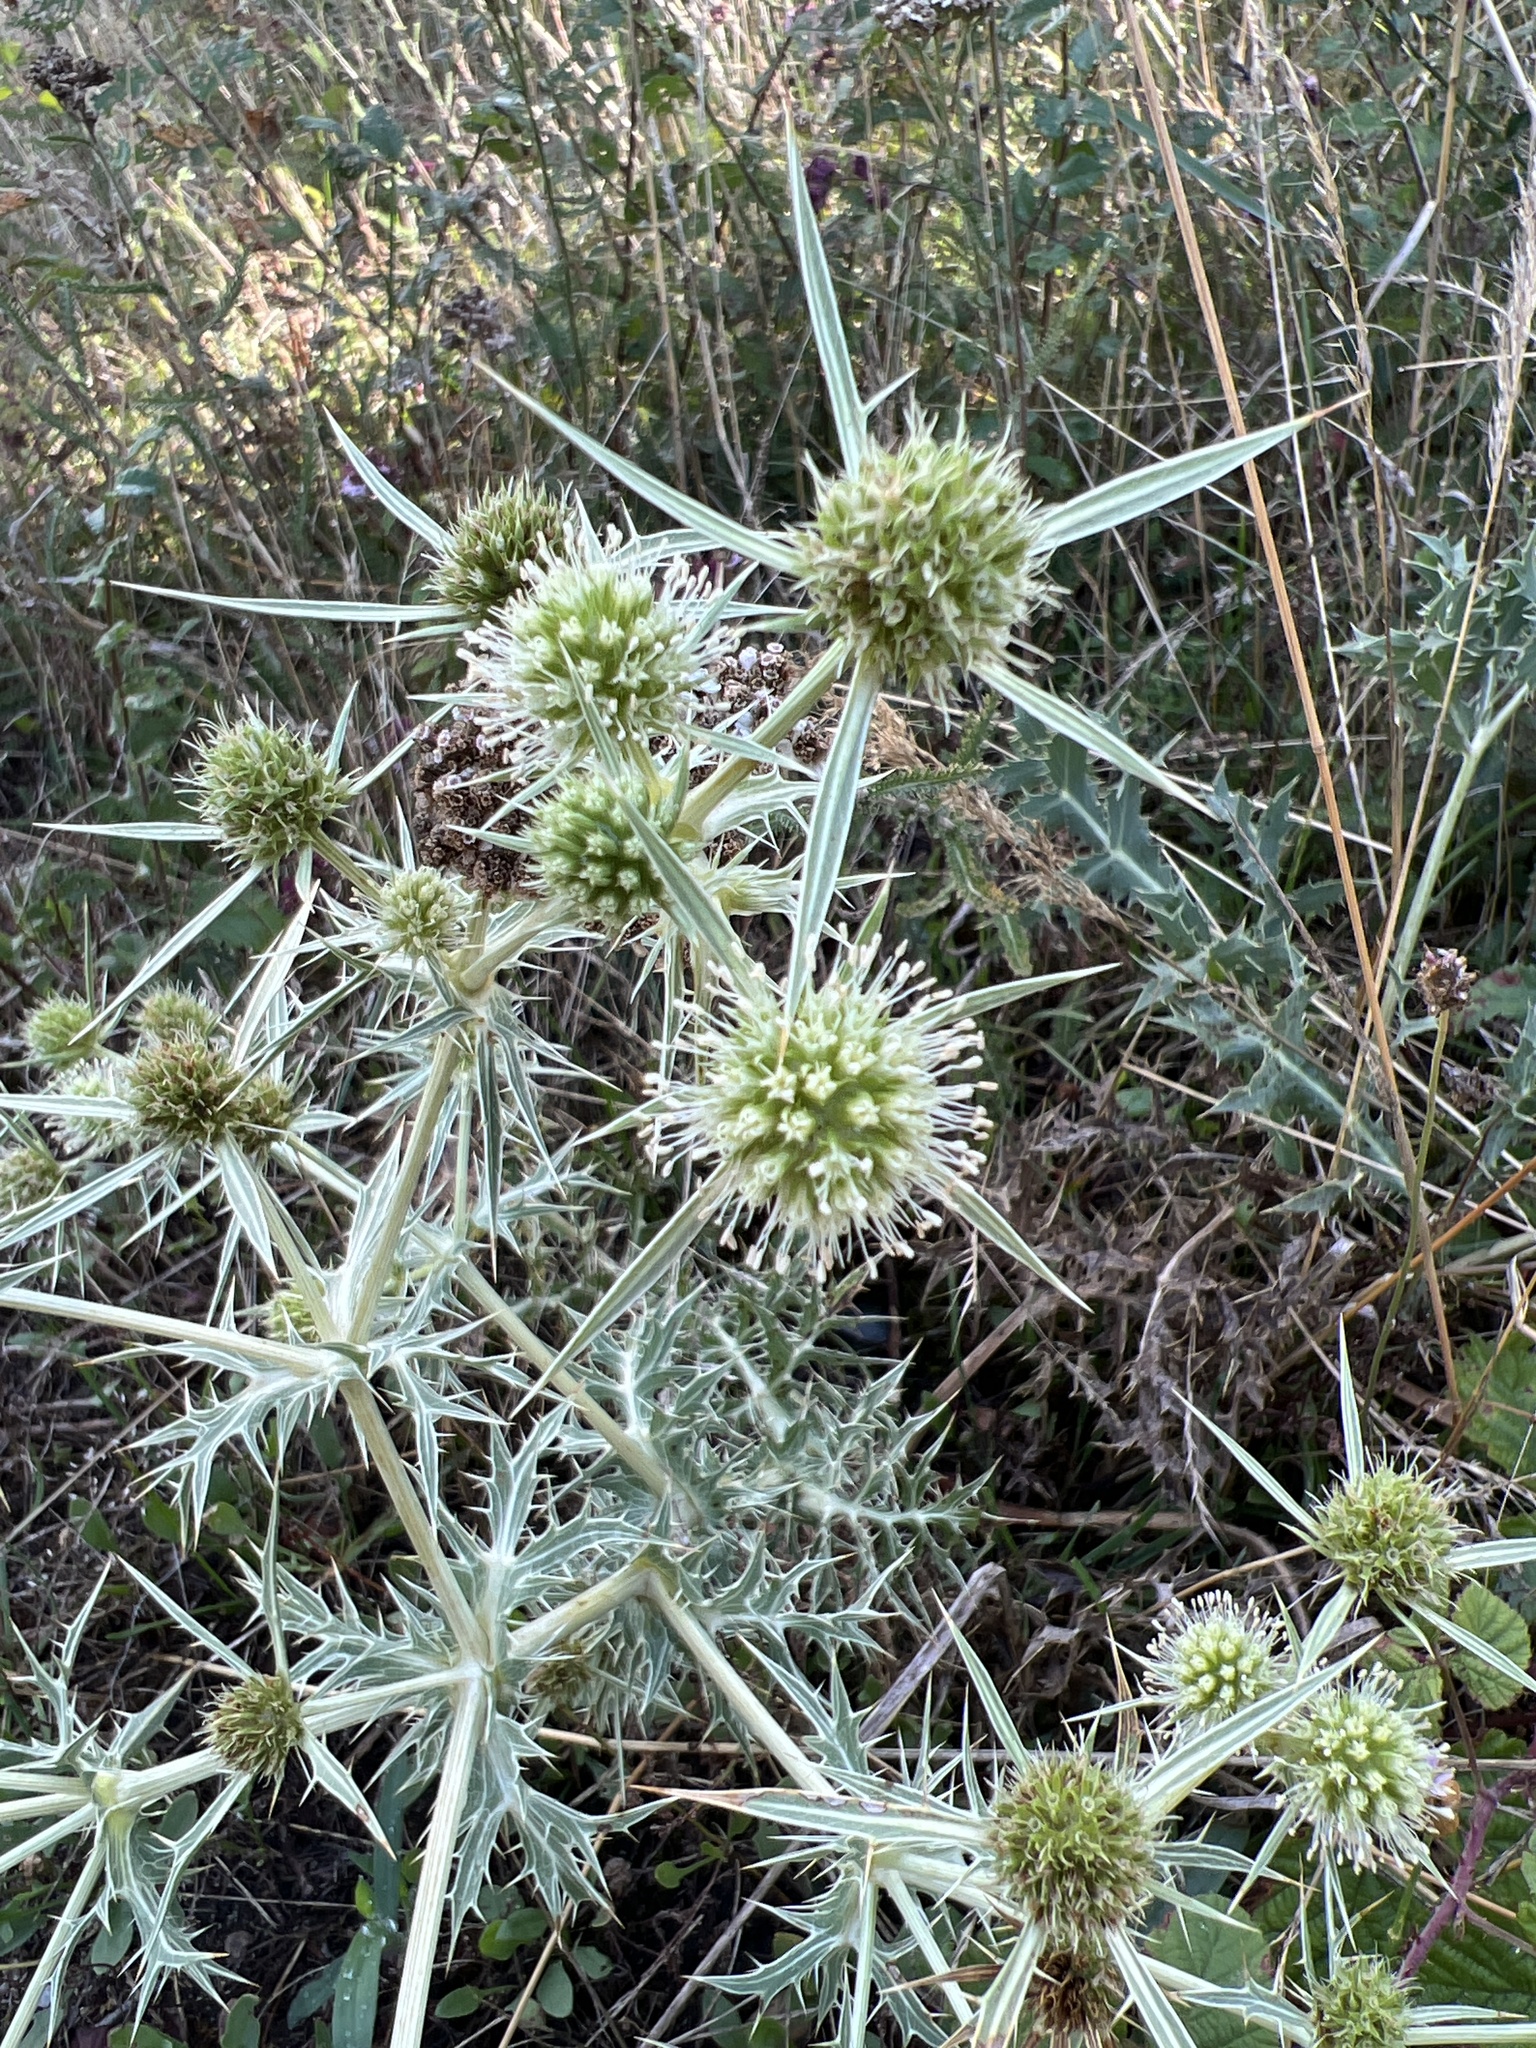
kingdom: Plantae
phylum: Tracheophyta
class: Magnoliopsida
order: Apiales
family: Apiaceae
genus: Eryngium
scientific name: Eryngium campestre
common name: Field eryngo
